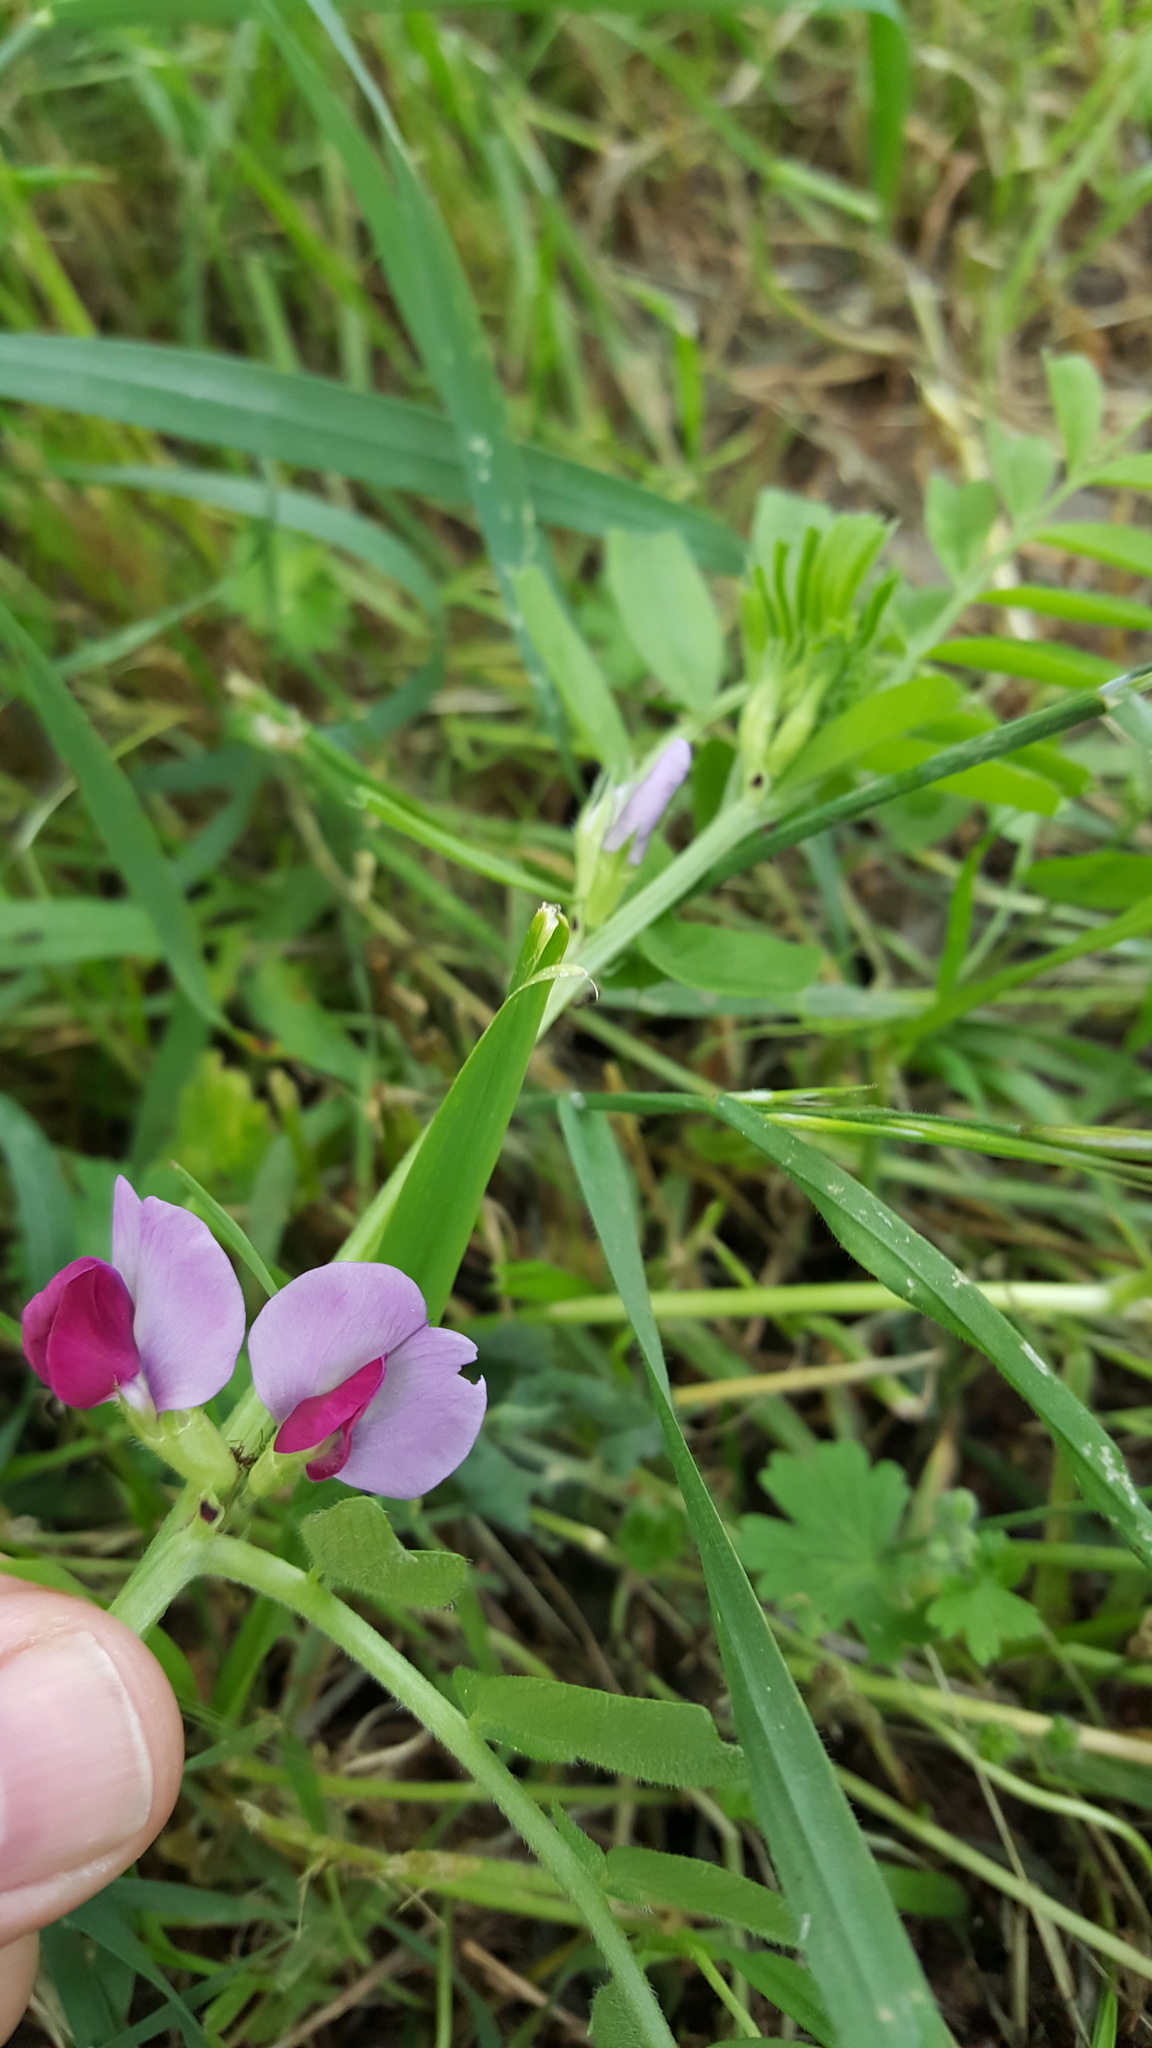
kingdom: Plantae
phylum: Tracheophyta
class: Magnoliopsida
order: Fabales
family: Fabaceae
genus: Vicia
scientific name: Vicia sativa
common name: Garden vetch
